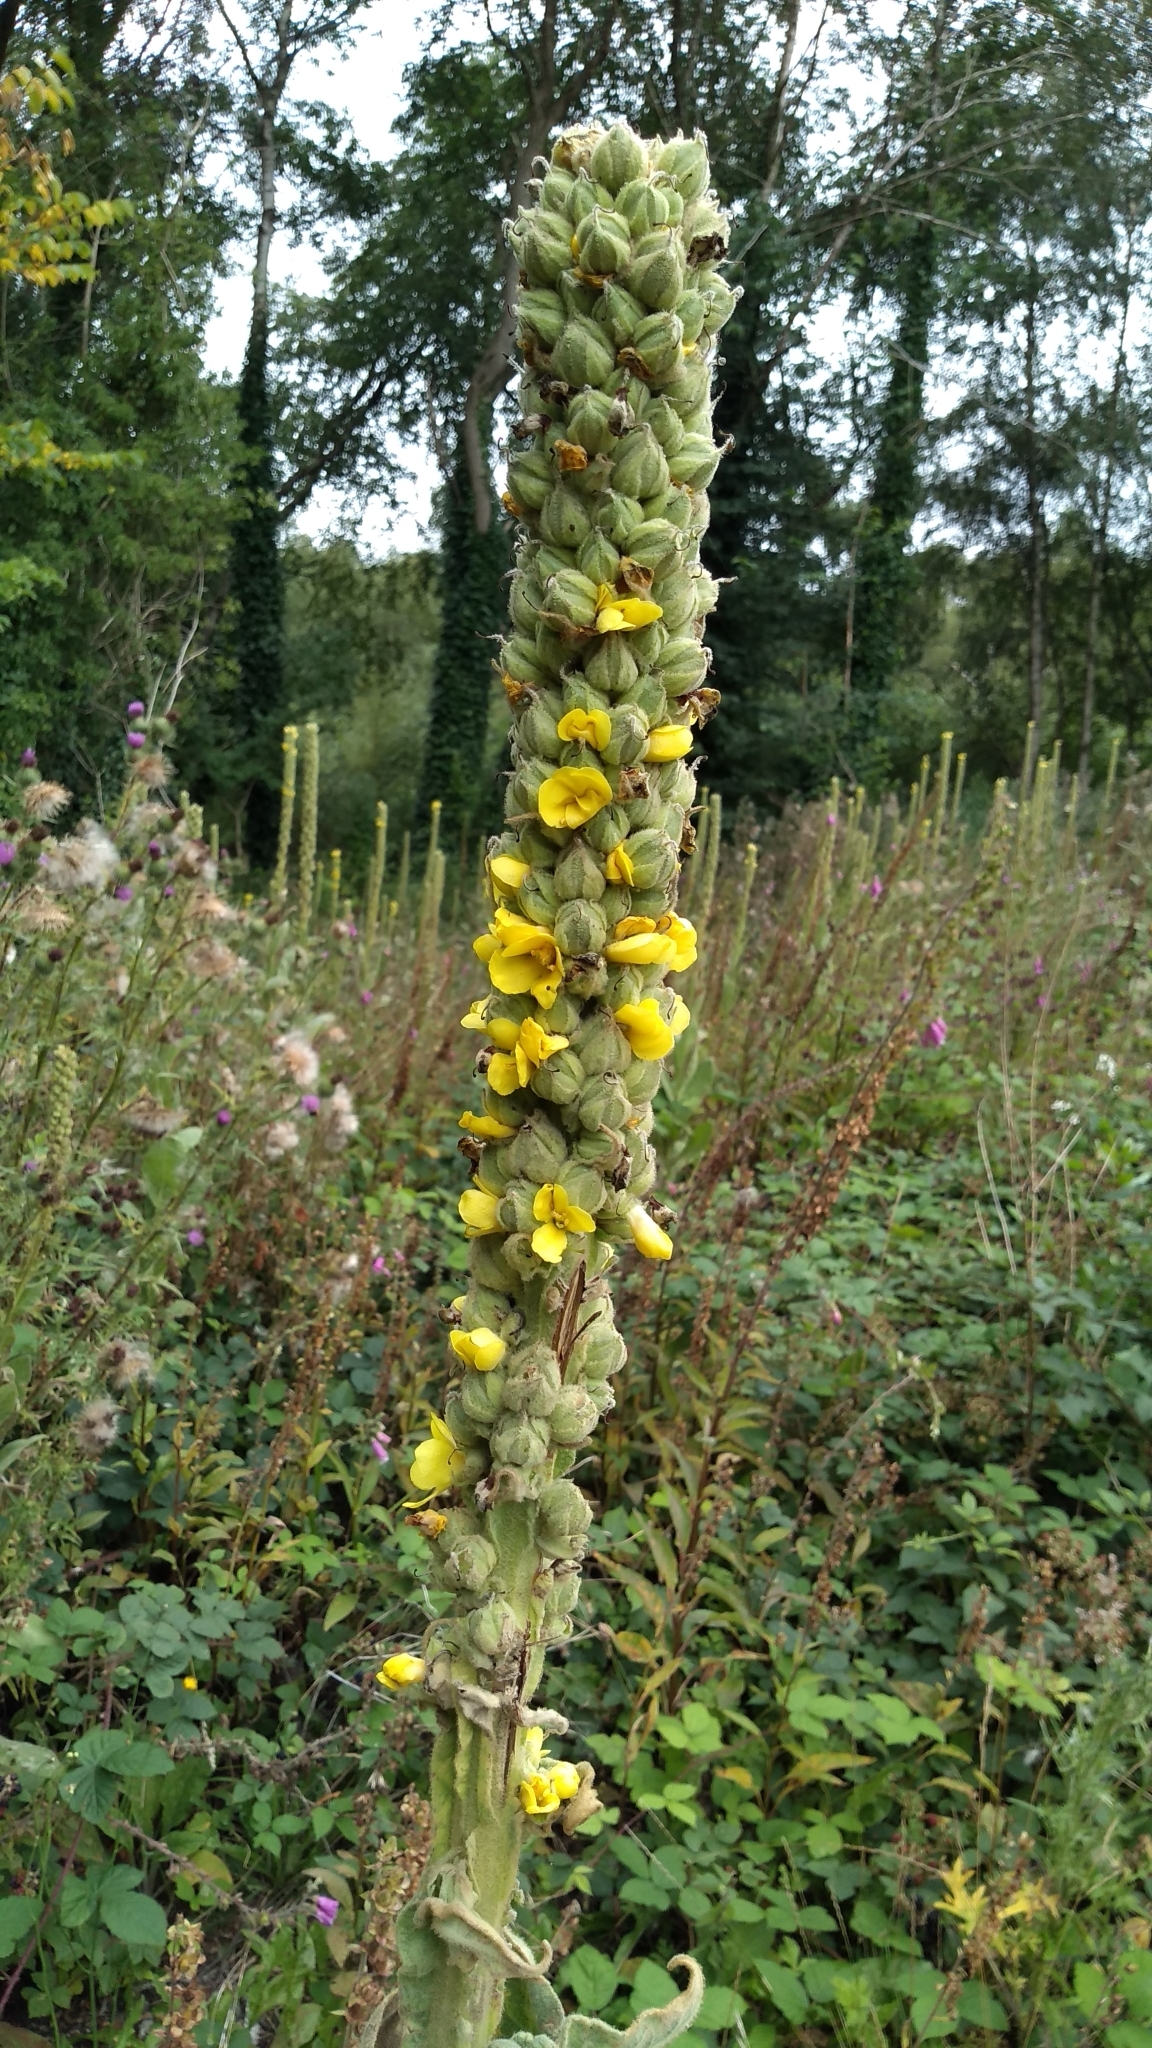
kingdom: Plantae
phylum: Tracheophyta
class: Magnoliopsida
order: Lamiales
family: Scrophulariaceae
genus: Verbascum
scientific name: Verbascum thapsus
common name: Common mullein
